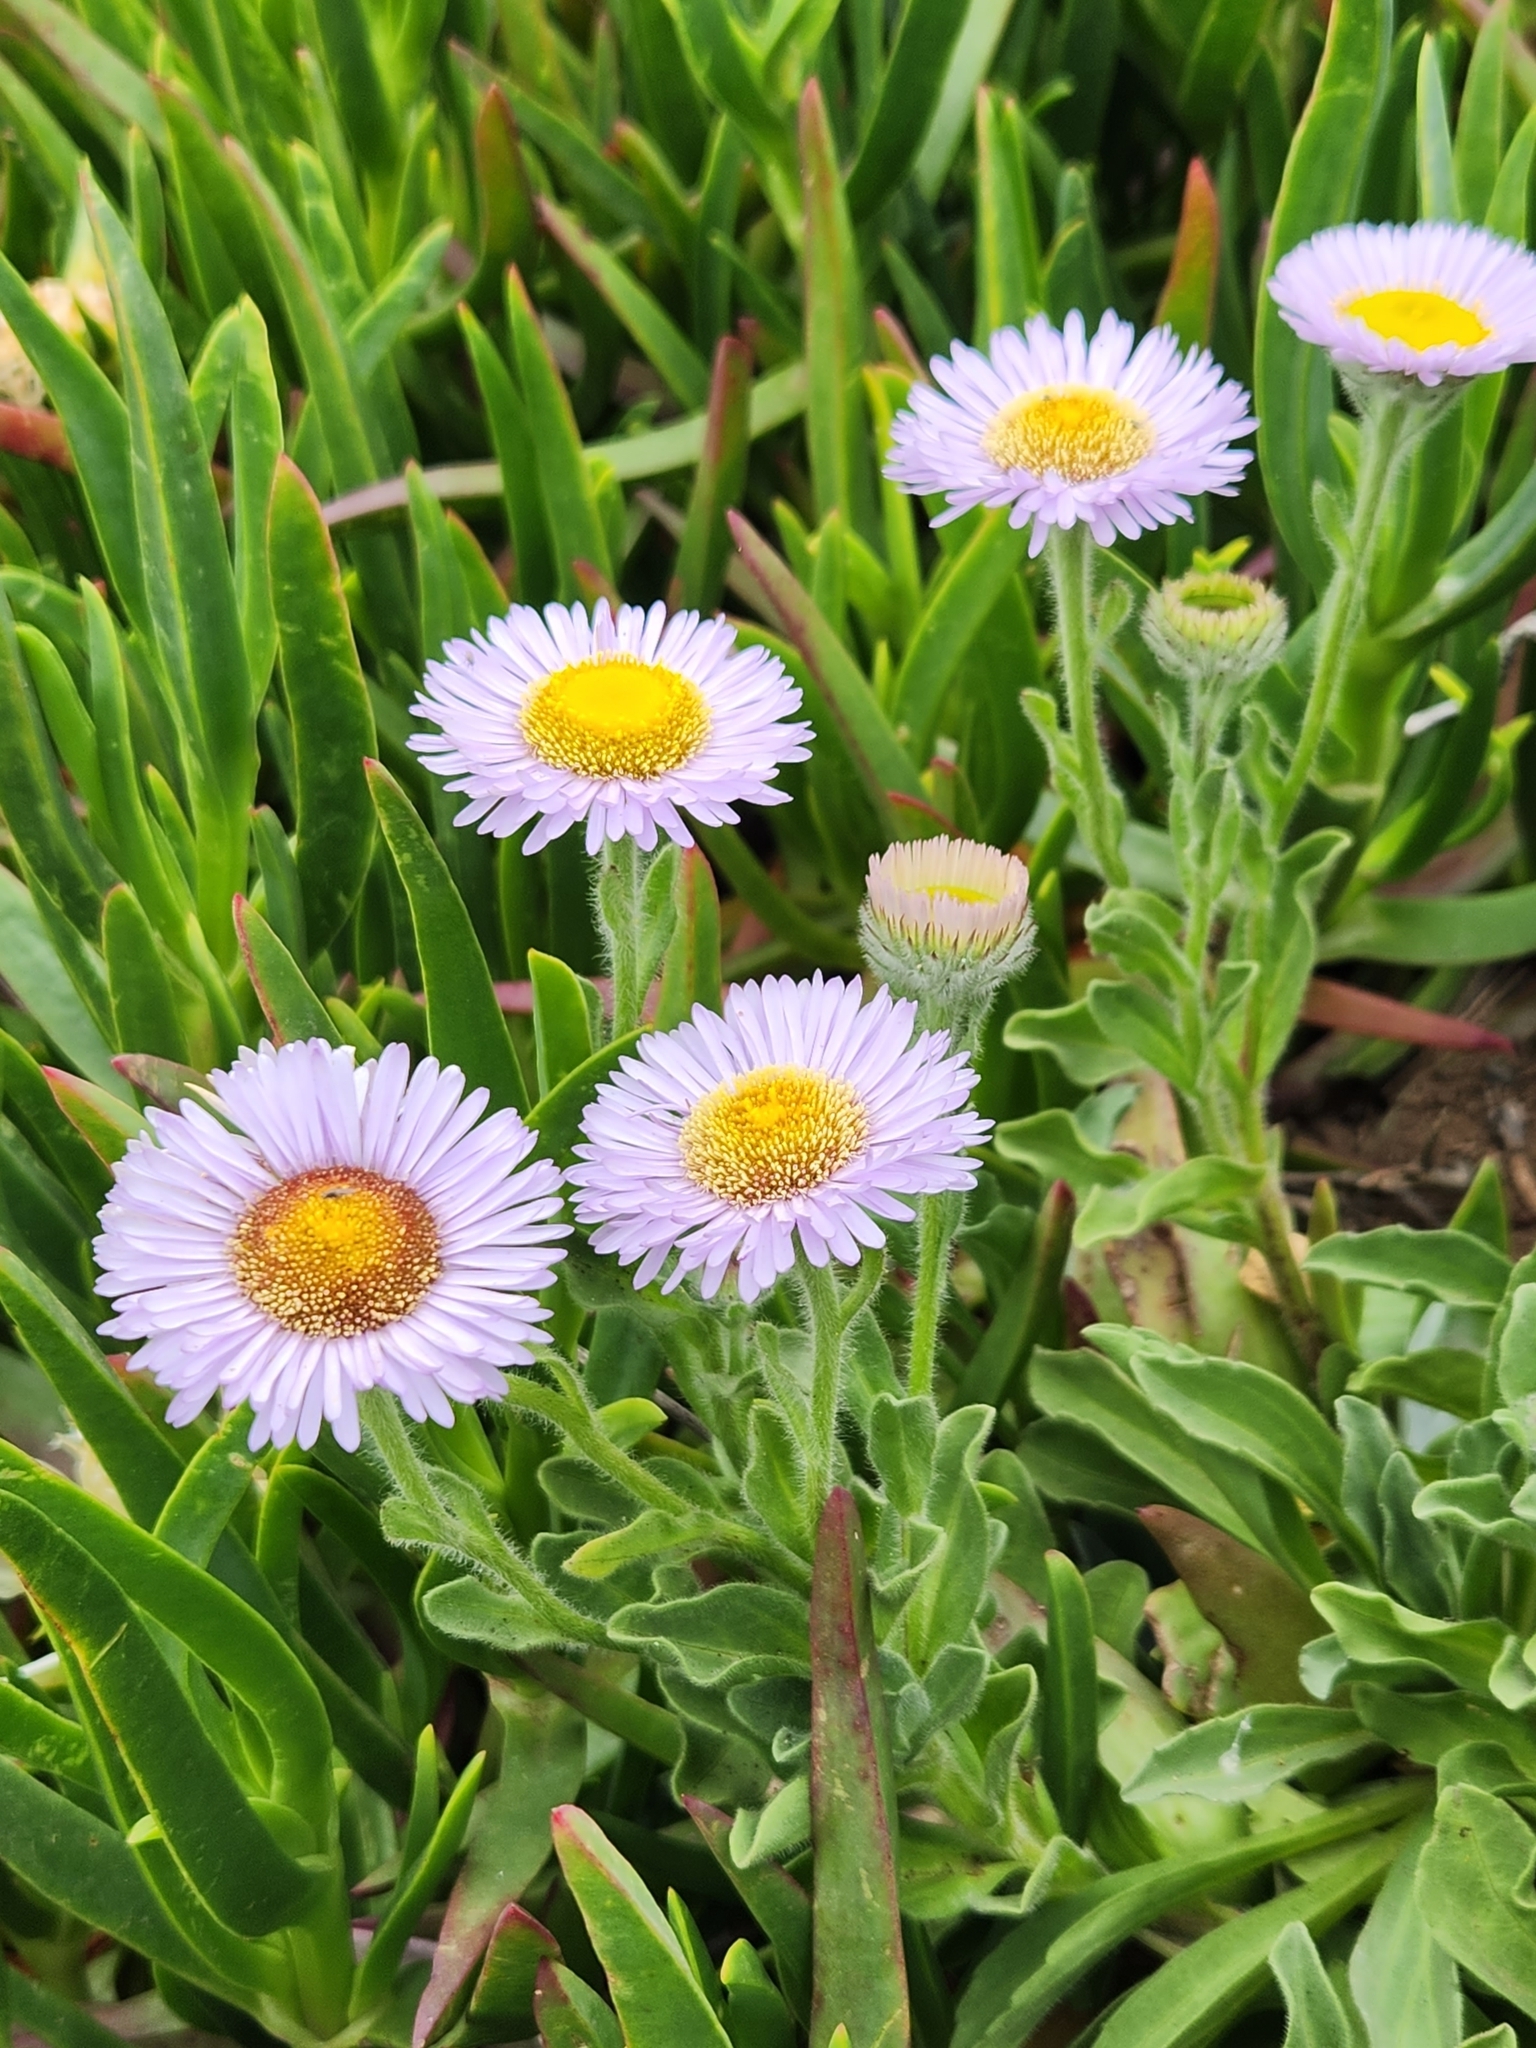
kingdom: Plantae
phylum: Tracheophyta
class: Magnoliopsida
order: Asterales
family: Asteraceae
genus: Erigeron
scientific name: Erigeron glaucus
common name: Seaside daisy
